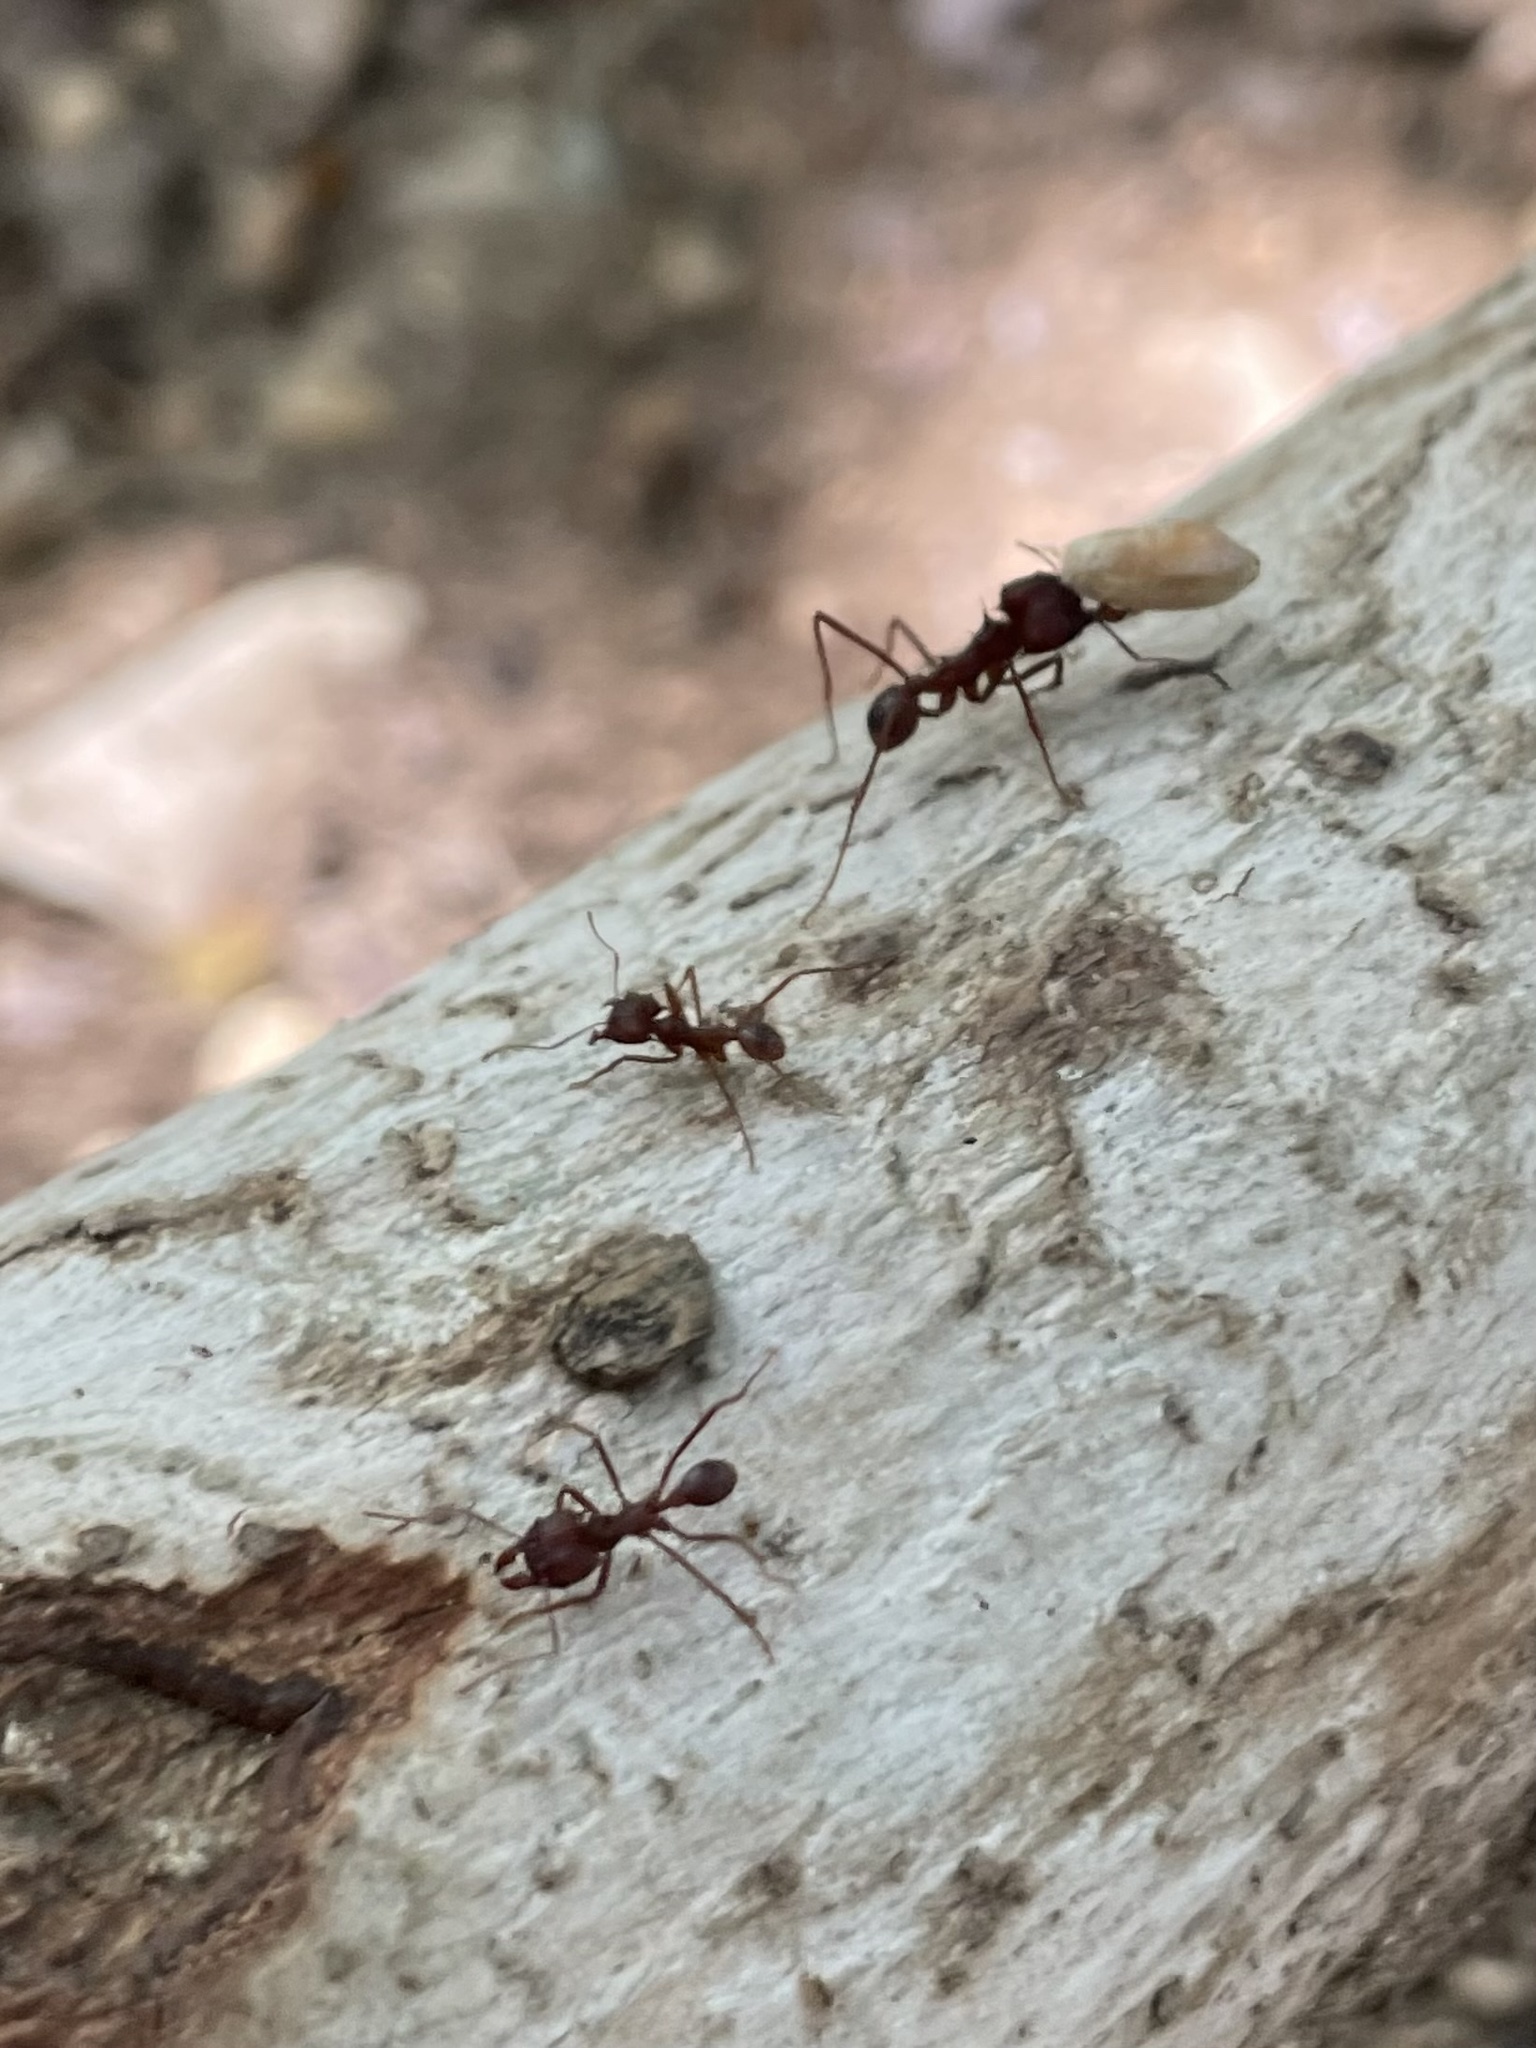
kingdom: Animalia
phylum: Arthropoda
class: Insecta
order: Hymenoptera
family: Formicidae
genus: Atta
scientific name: Atta texana
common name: Texas leafcutting ant
